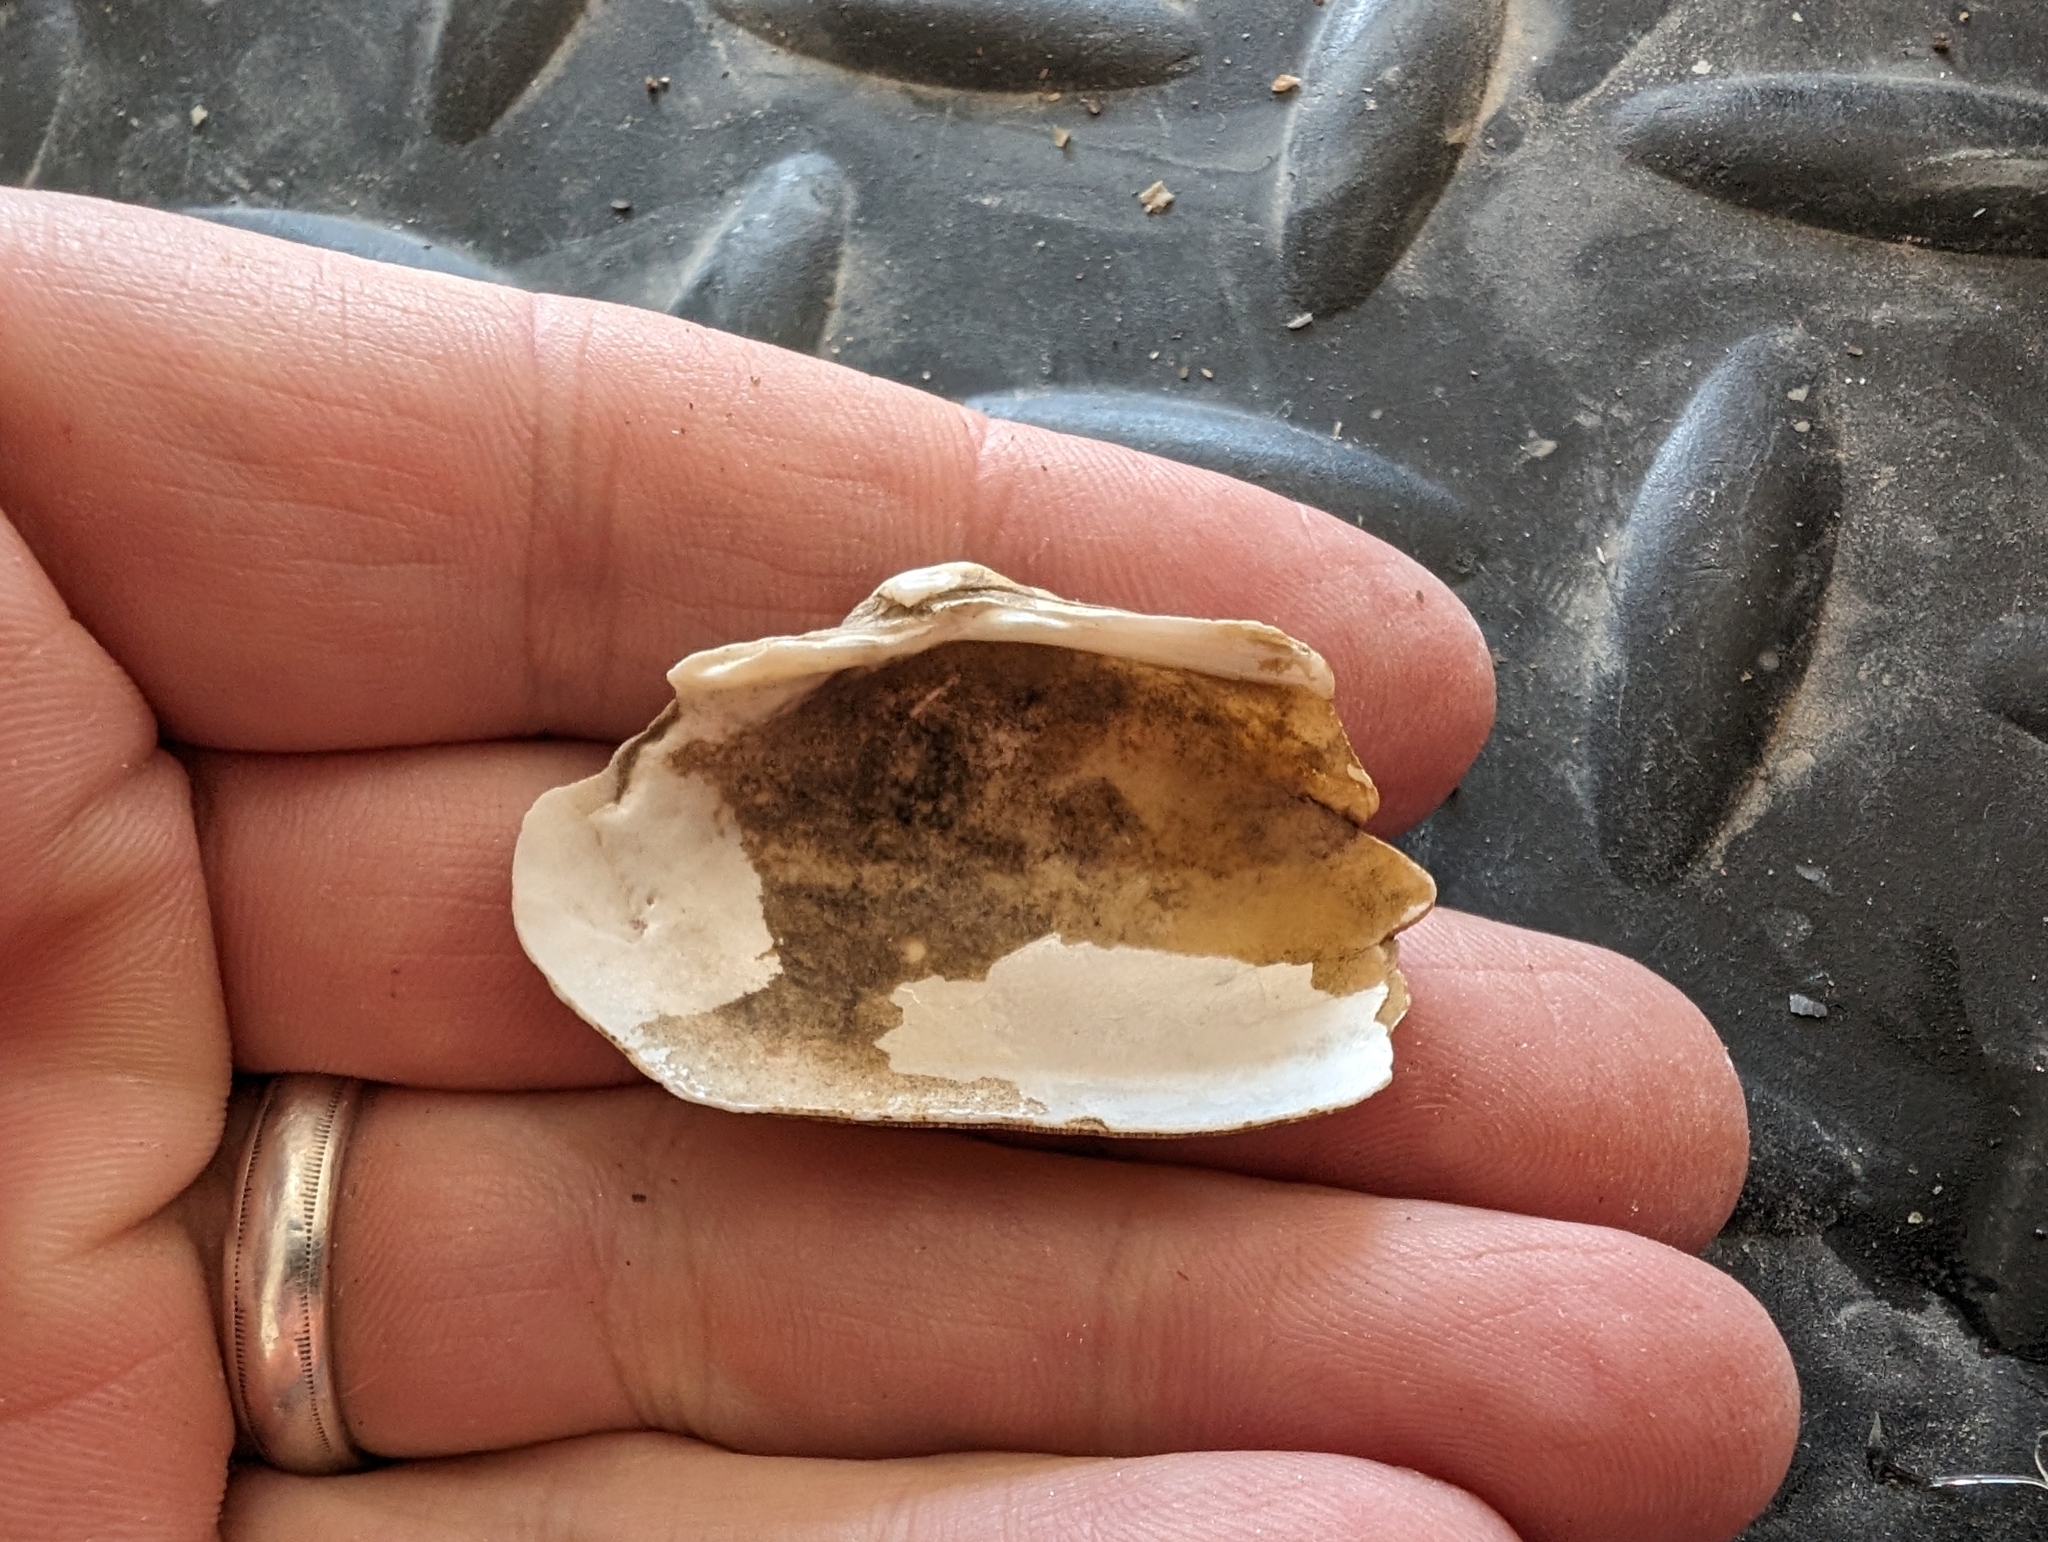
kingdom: Animalia
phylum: Mollusca
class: Bivalvia
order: Unionida
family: Unionidae
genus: Alasmidonta
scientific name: Alasmidonta marginata
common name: Elktoe
